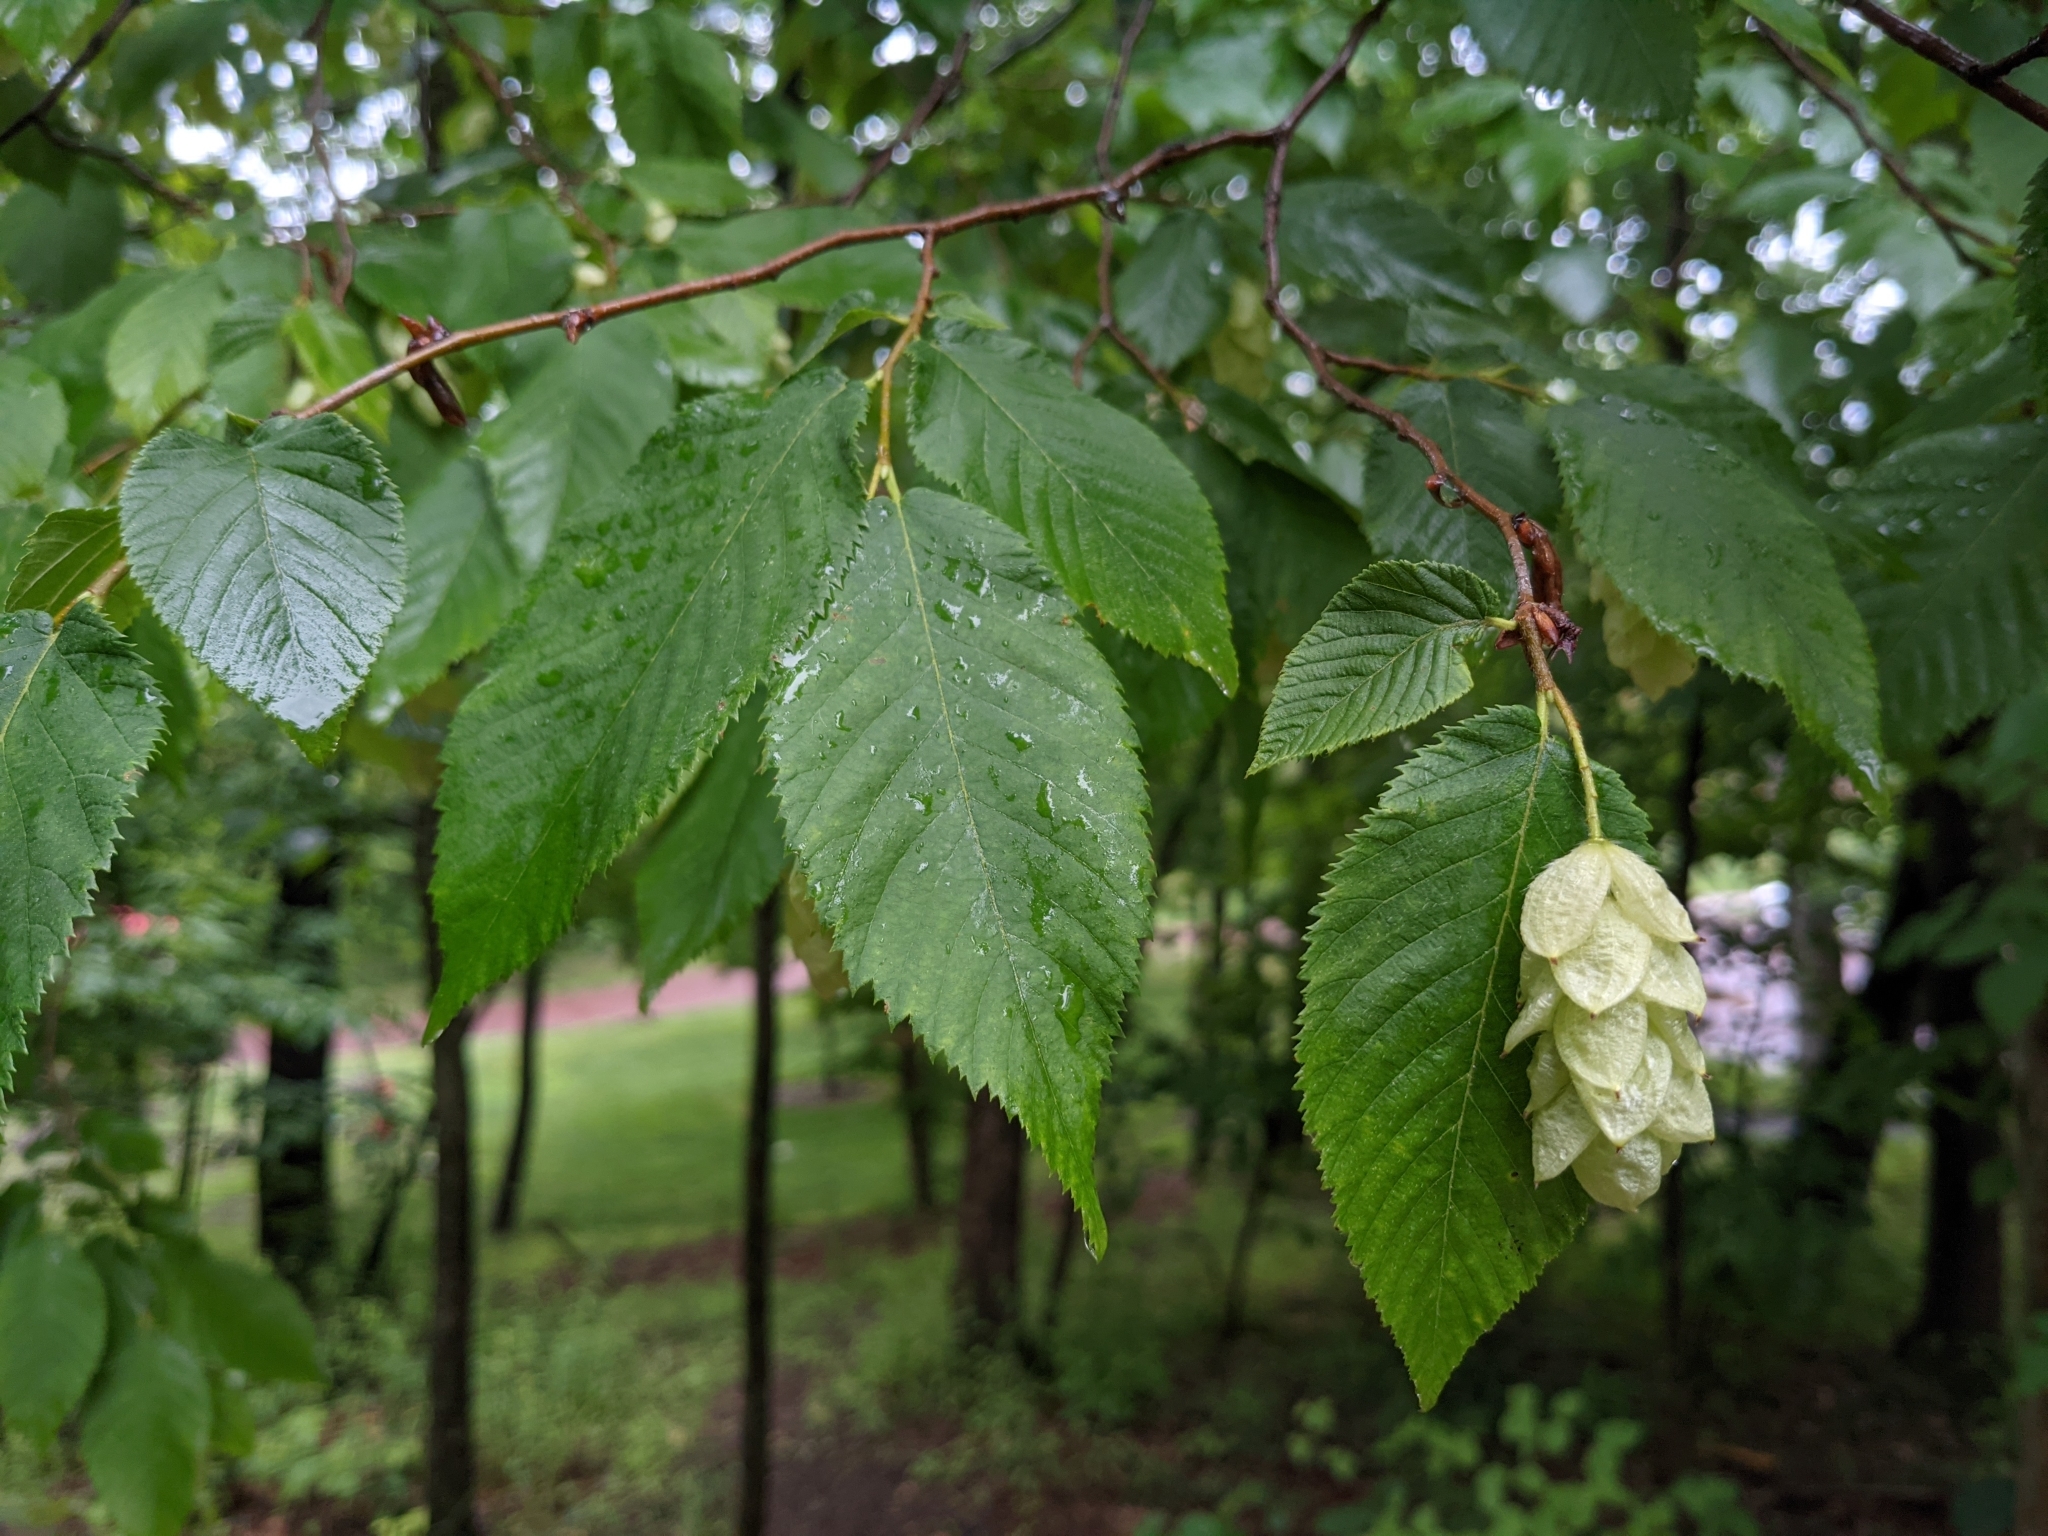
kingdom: Plantae
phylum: Tracheophyta
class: Magnoliopsida
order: Fagales
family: Betulaceae
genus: Ostrya
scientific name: Ostrya virginiana
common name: Ironwood
